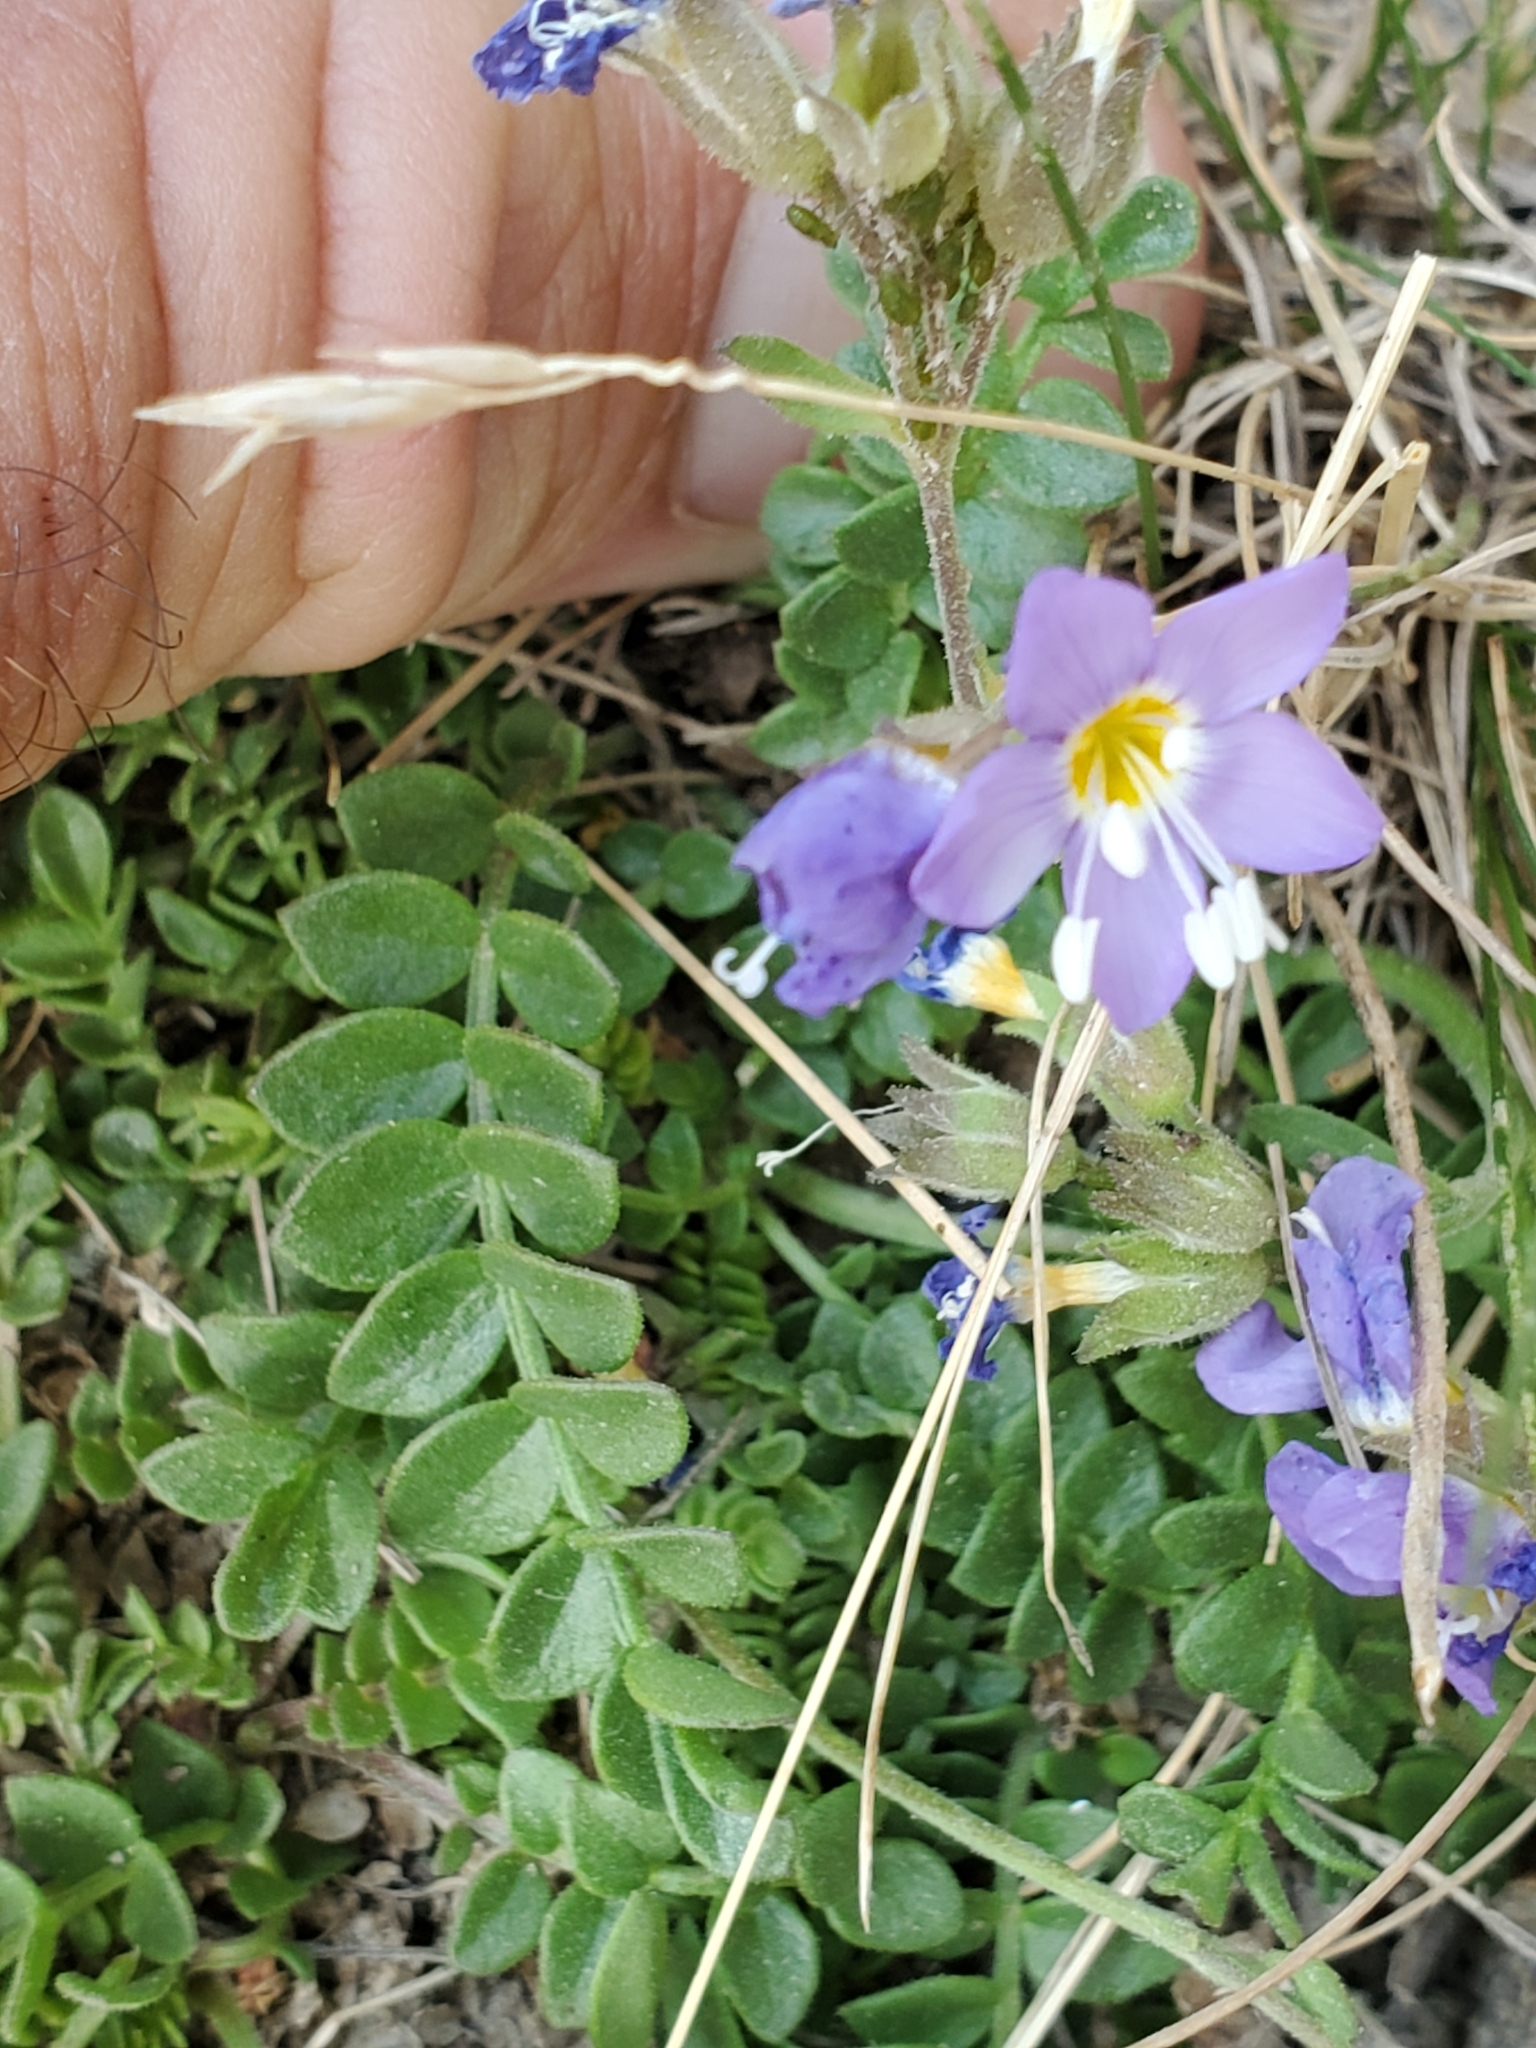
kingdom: Plantae
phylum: Tracheophyta
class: Magnoliopsida
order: Ericales
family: Polemoniaceae
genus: Polemonium
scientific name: Polemonium pulcherrimum
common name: Short jacob's-ladder
